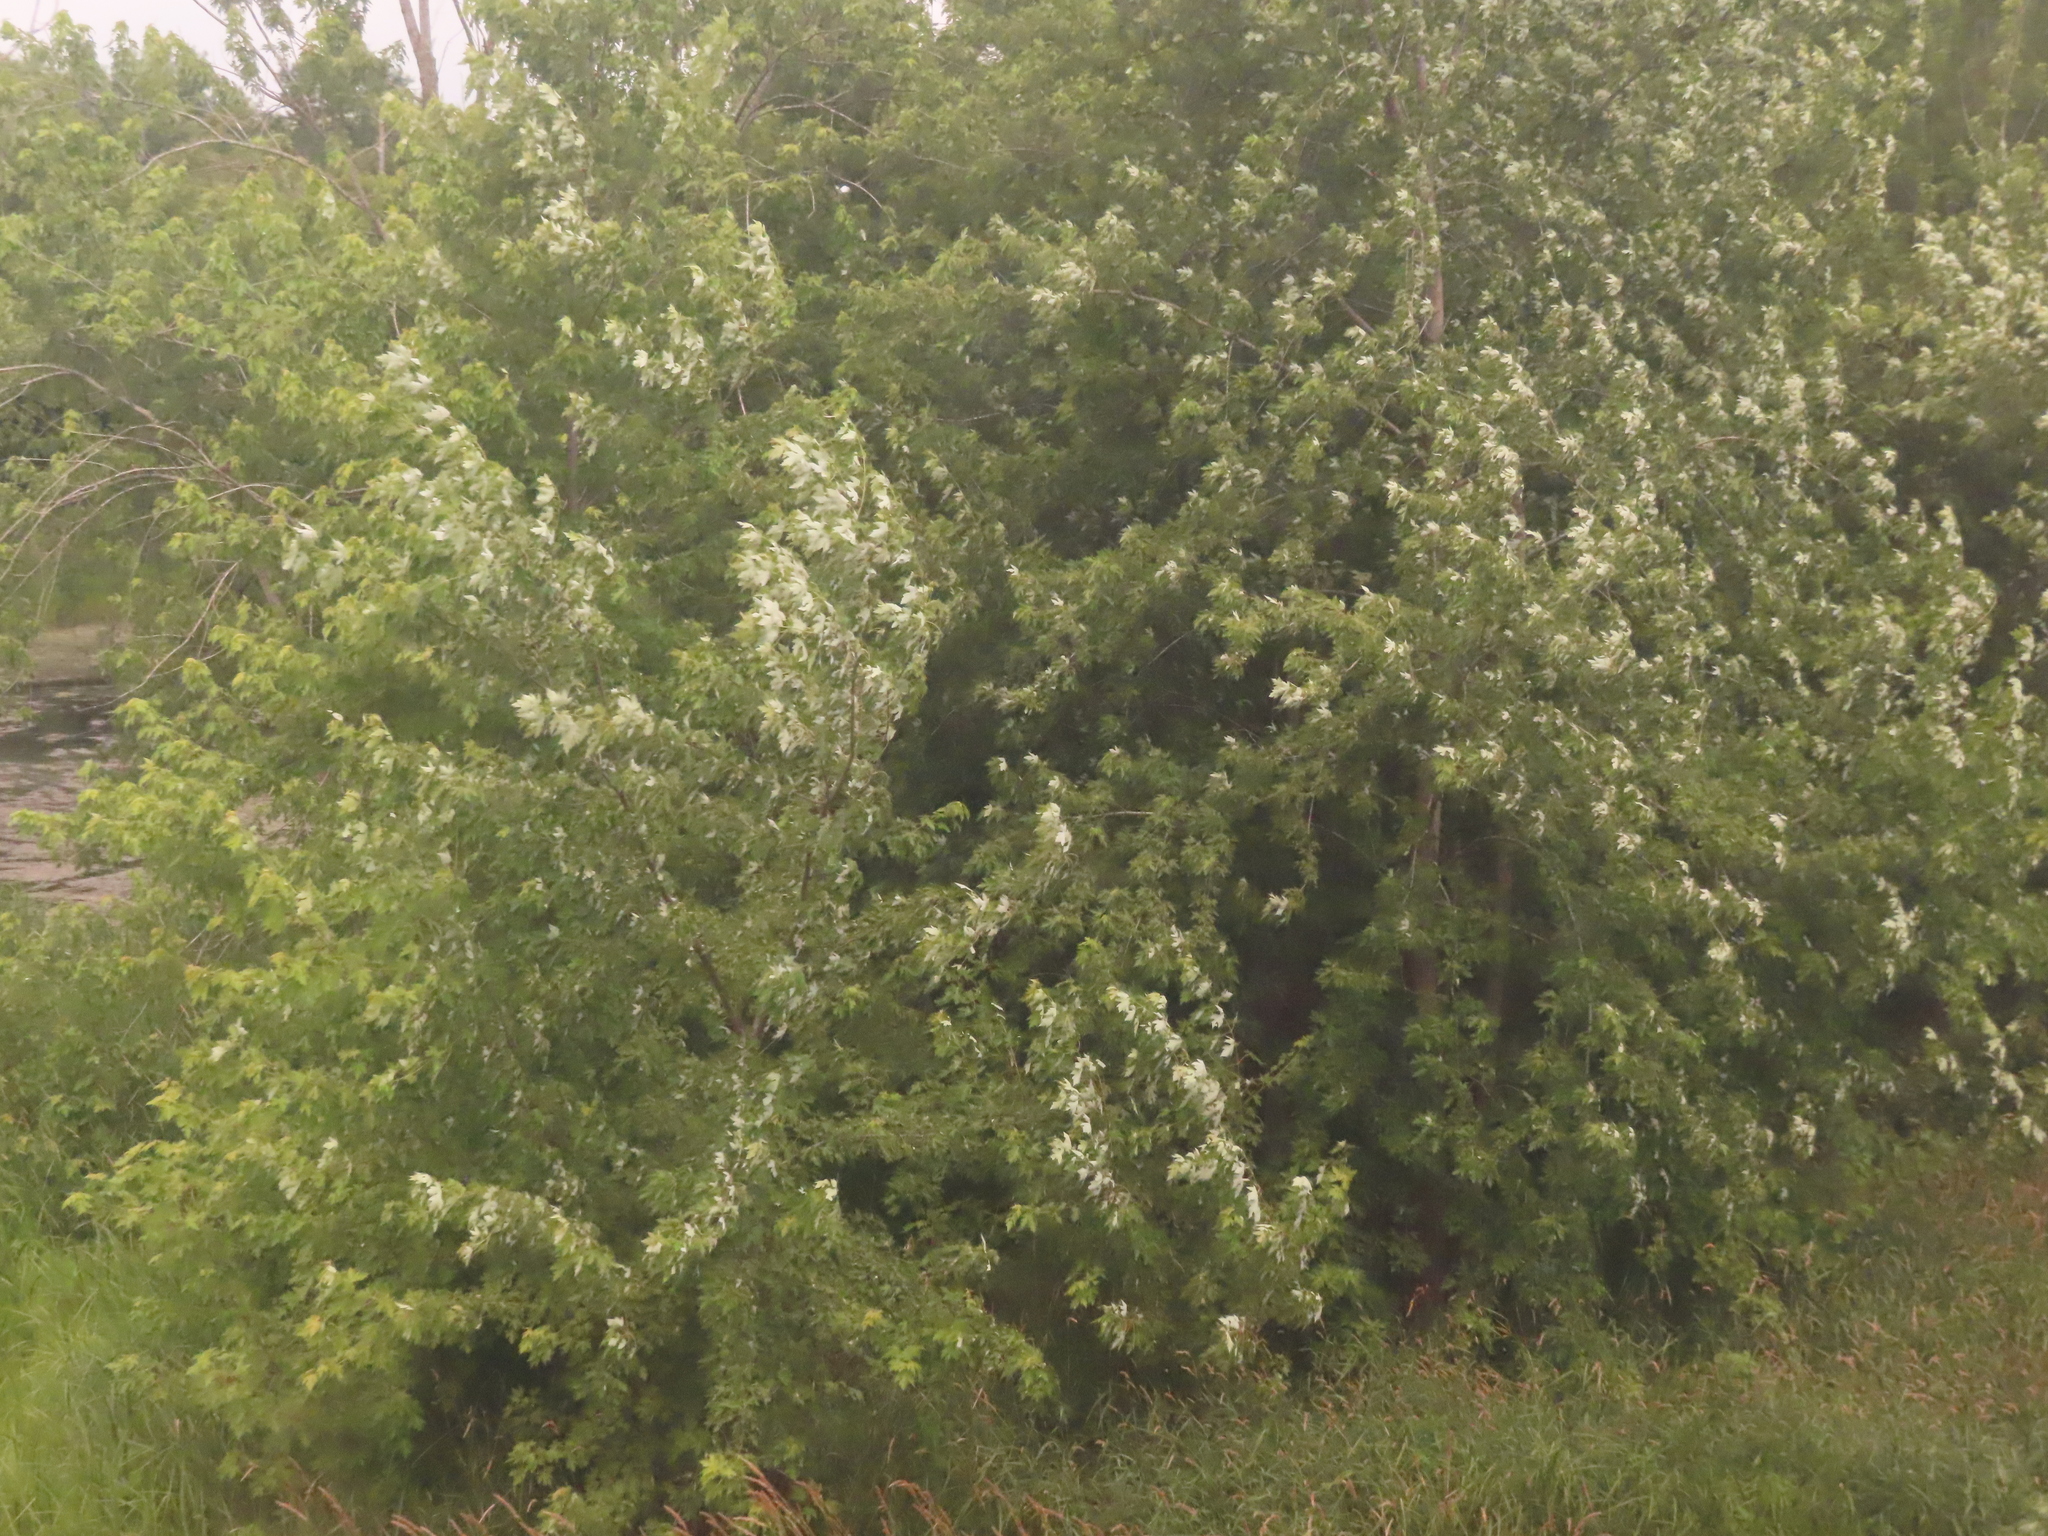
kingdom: Plantae
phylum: Tracheophyta
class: Magnoliopsida
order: Sapindales
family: Sapindaceae
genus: Acer
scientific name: Acer saccharinum
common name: Silver maple
